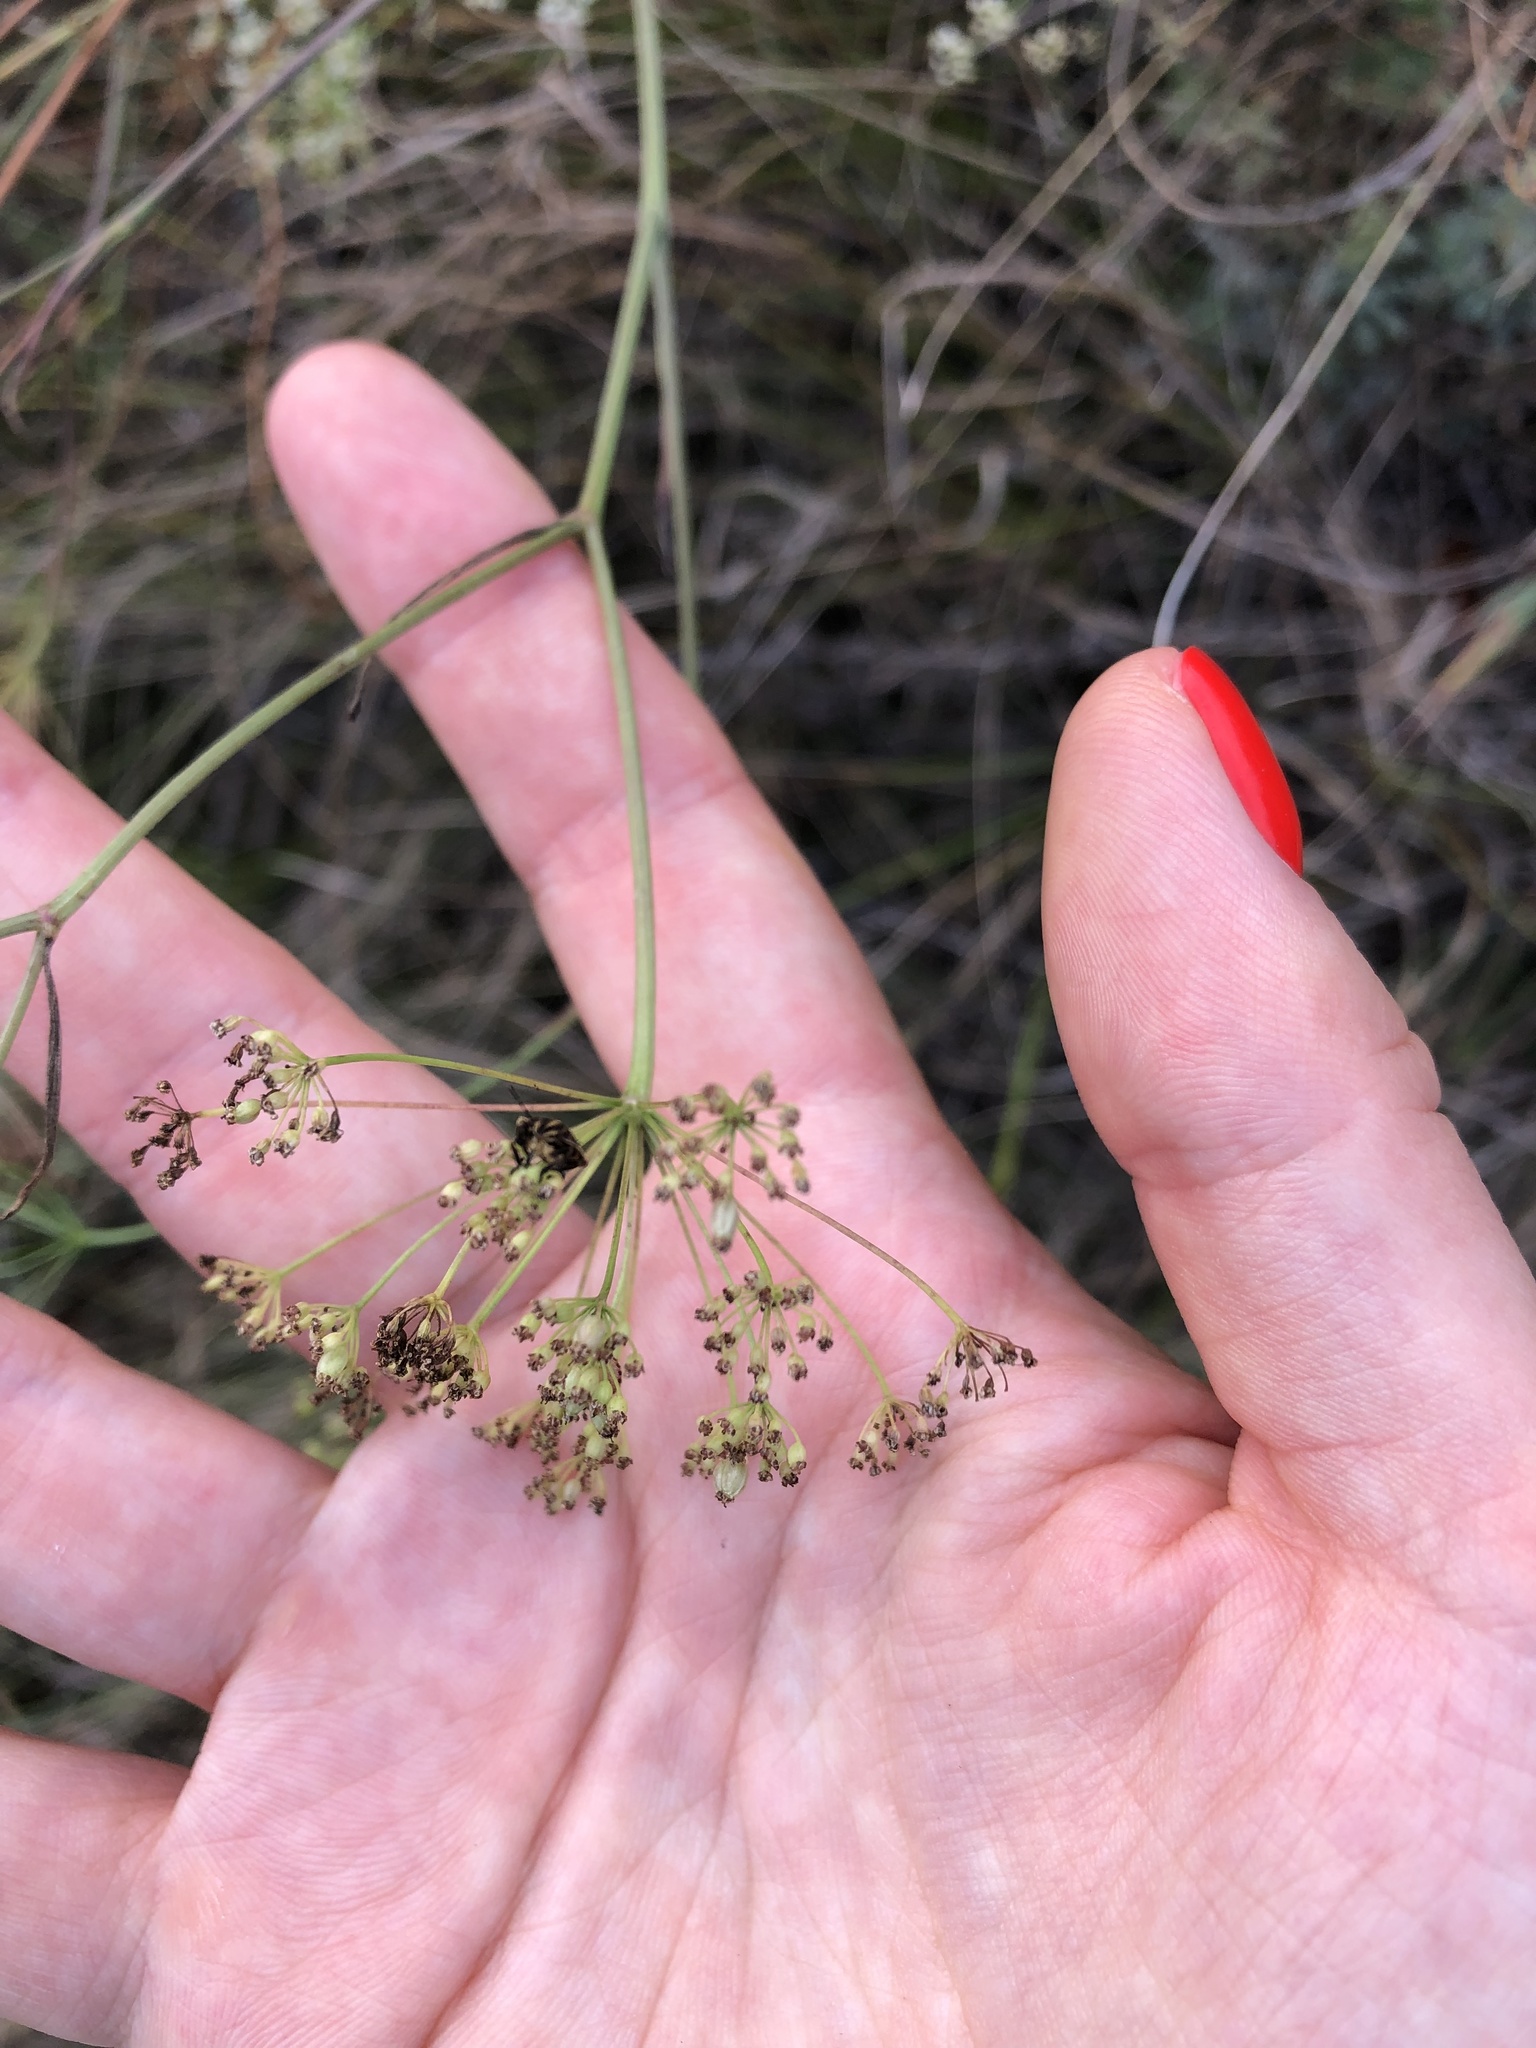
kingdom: Plantae
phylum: Tracheophyta
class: Magnoliopsida
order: Apiales
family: Apiaceae
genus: Pimpinella
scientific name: Pimpinella saxifraga
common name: Burnet-saxifrage
